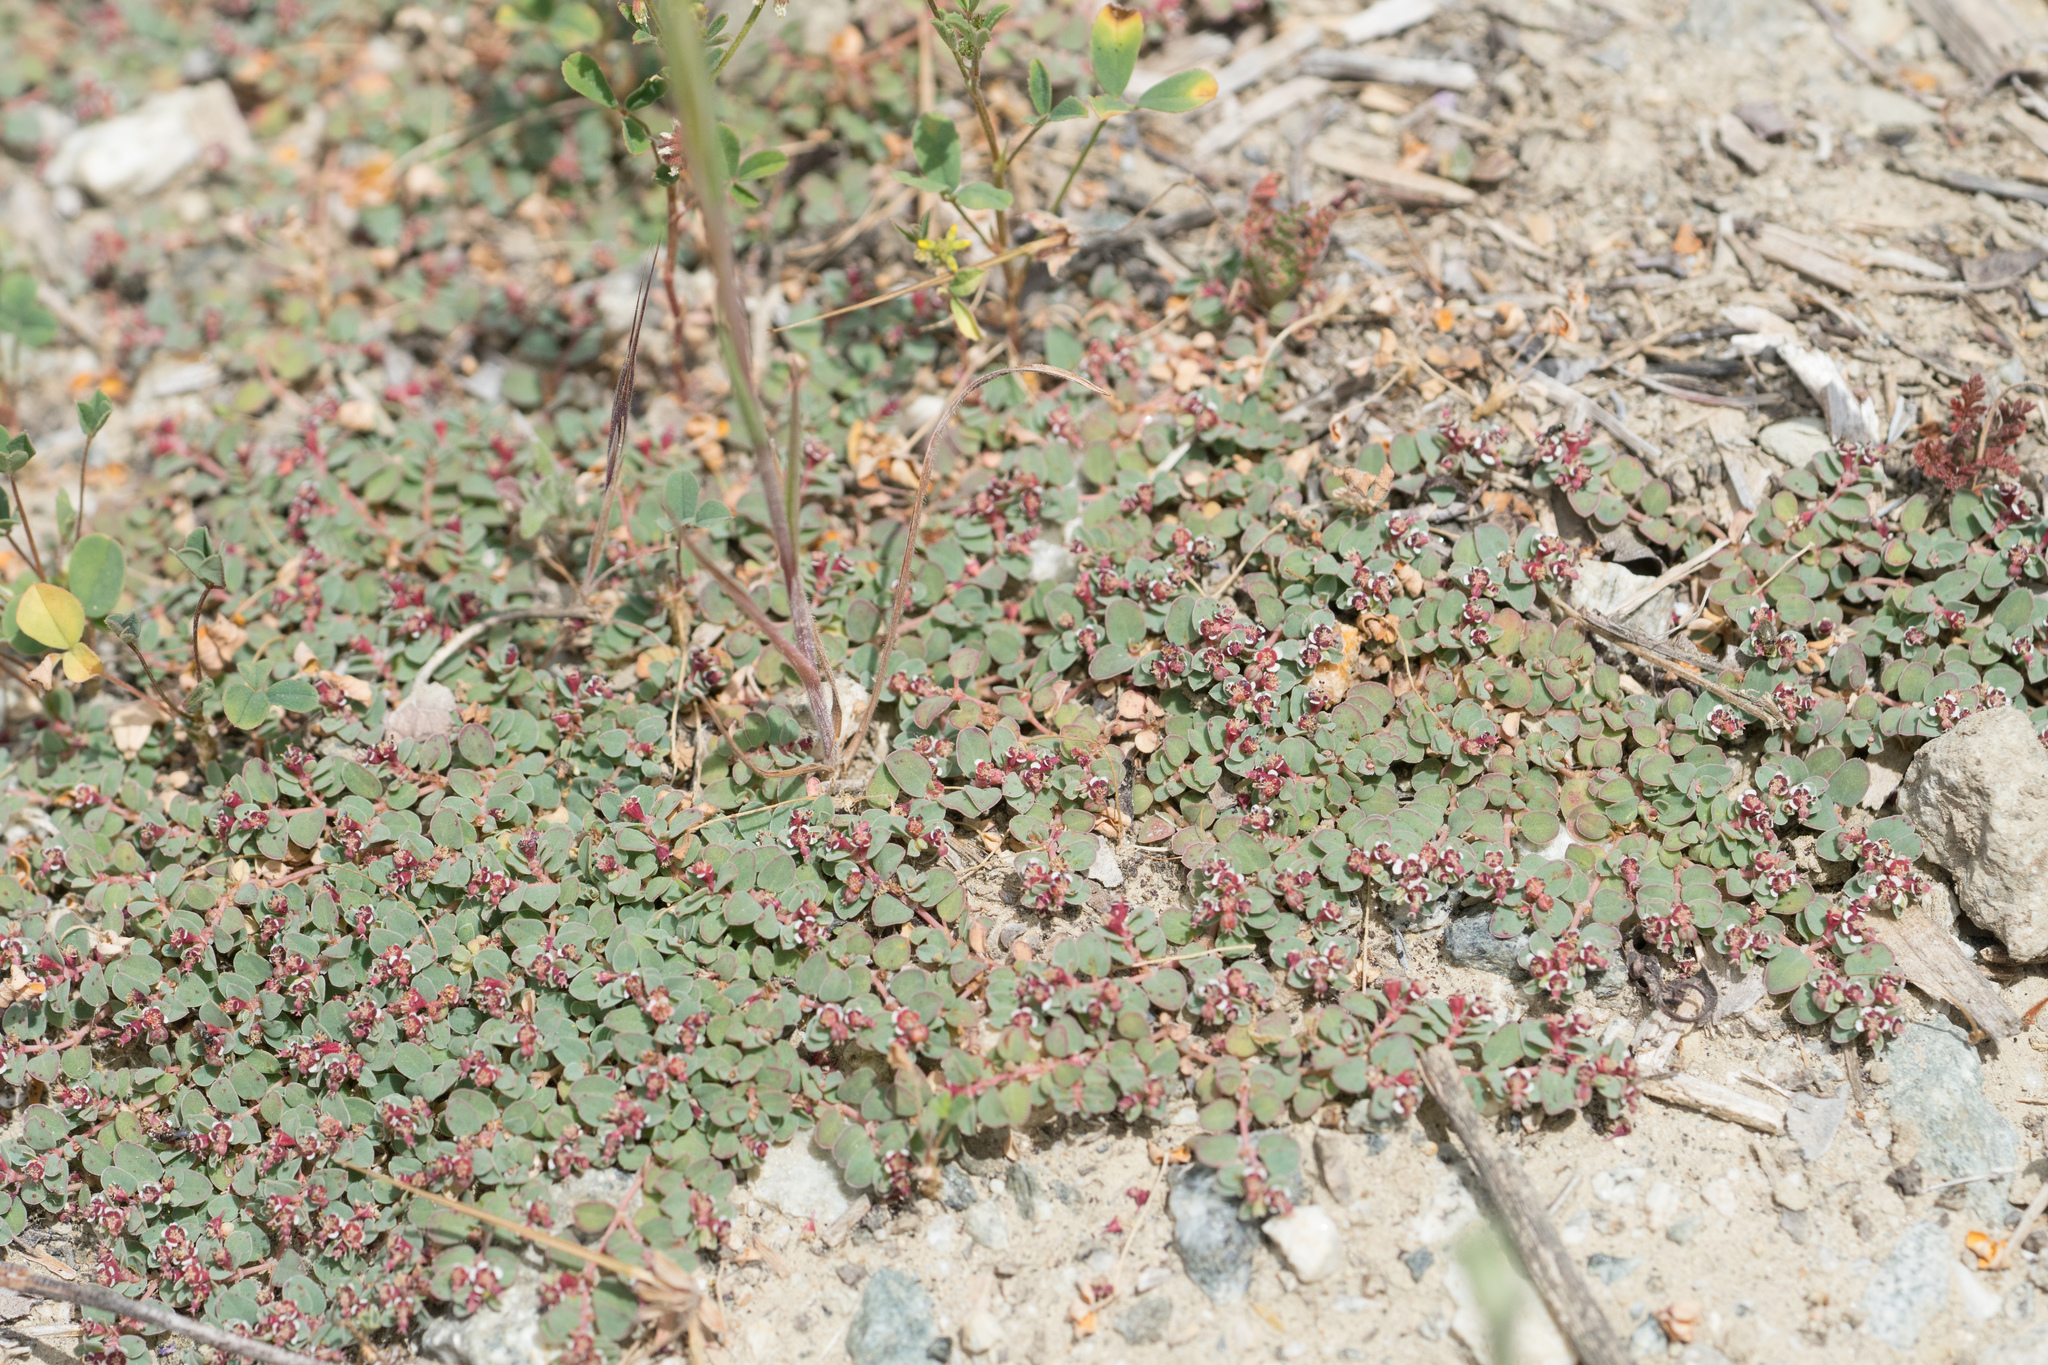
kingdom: Plantae
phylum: Tracheophyta
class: Magnoliopsida
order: Malpighiales
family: Euphorbiaceae
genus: Euphorbia
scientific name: Euphorbia albomarginata
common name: Whitemargin sandmat
